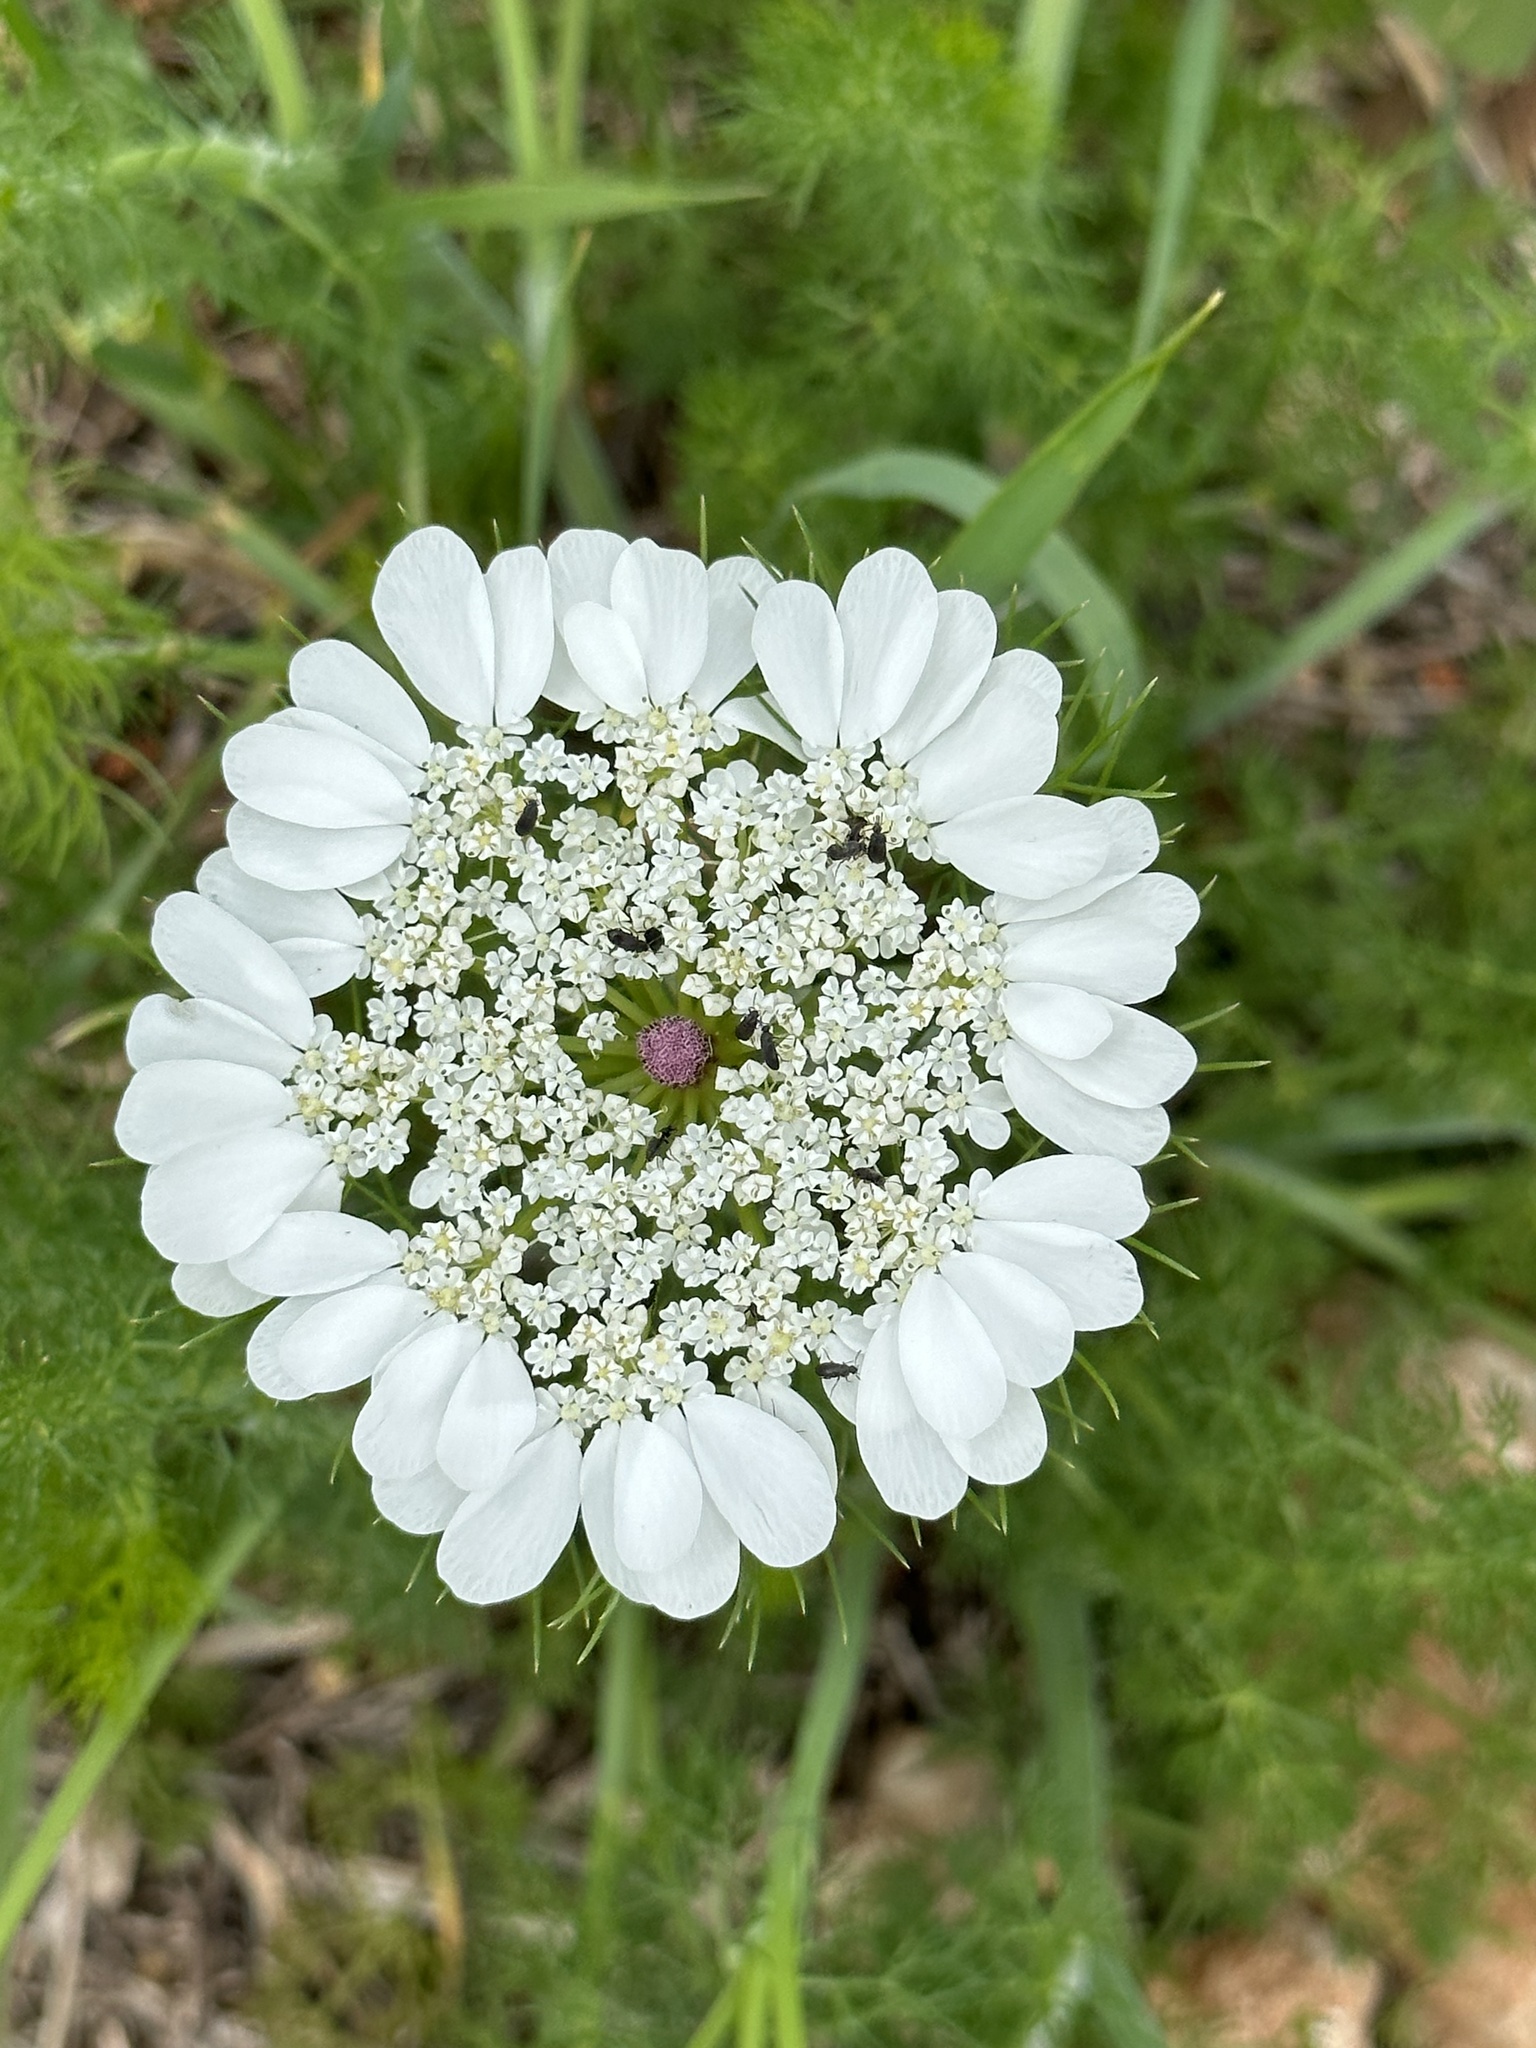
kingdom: Plantae
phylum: Tracheophyta
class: Magnoliopsida
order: Apiales
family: Apiaceae
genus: Artedia
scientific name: Artedia squamata
